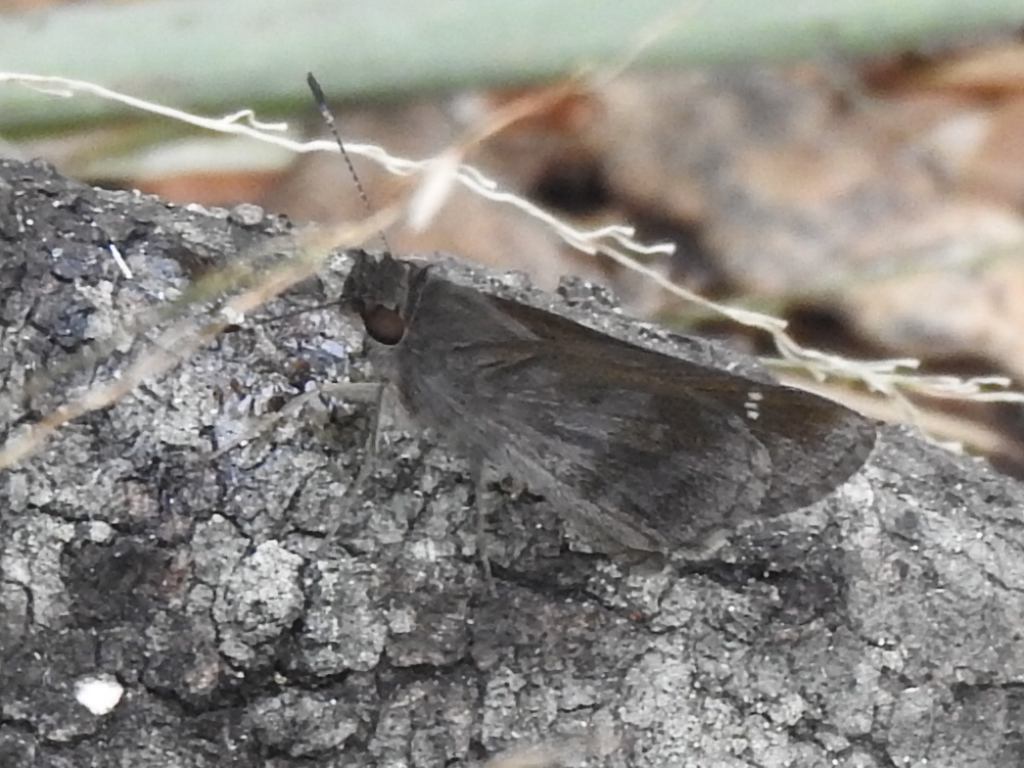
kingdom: Animalia
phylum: Arthropoda
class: Insecta
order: Lepidoptera
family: Hesperiidae
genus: Cymaenes
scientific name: Cymaenes
